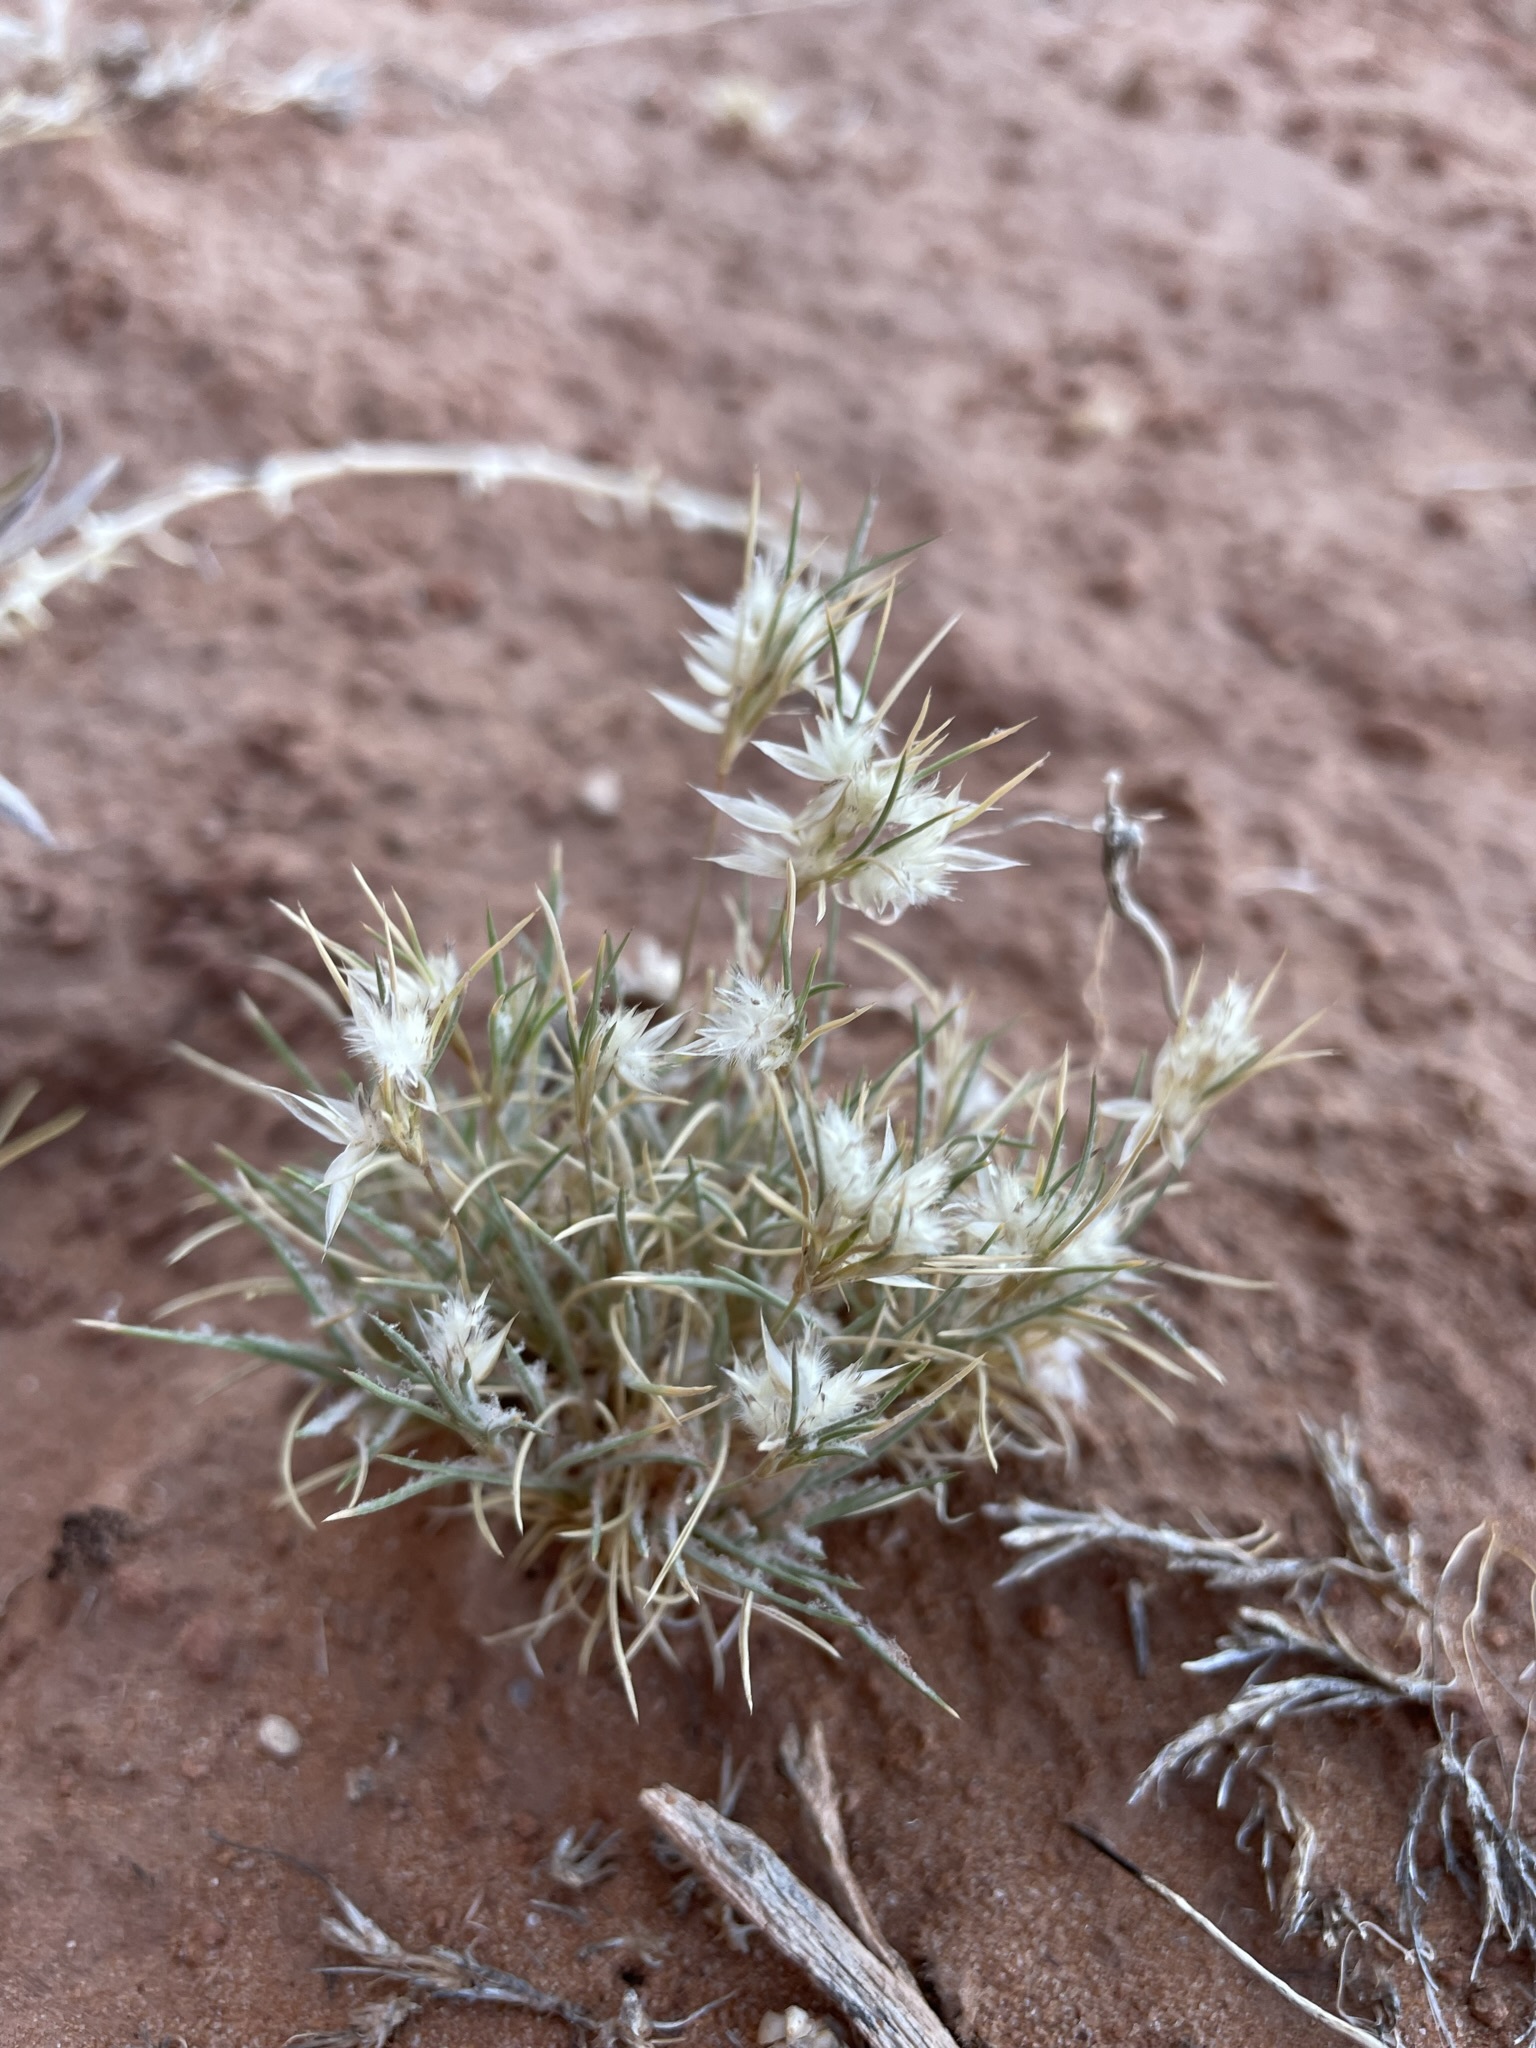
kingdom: Plantae
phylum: Tracheophyta
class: Liliopsida
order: Poales
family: Poaceae
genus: Dasyochloa
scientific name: Dasyochloa pulchella
